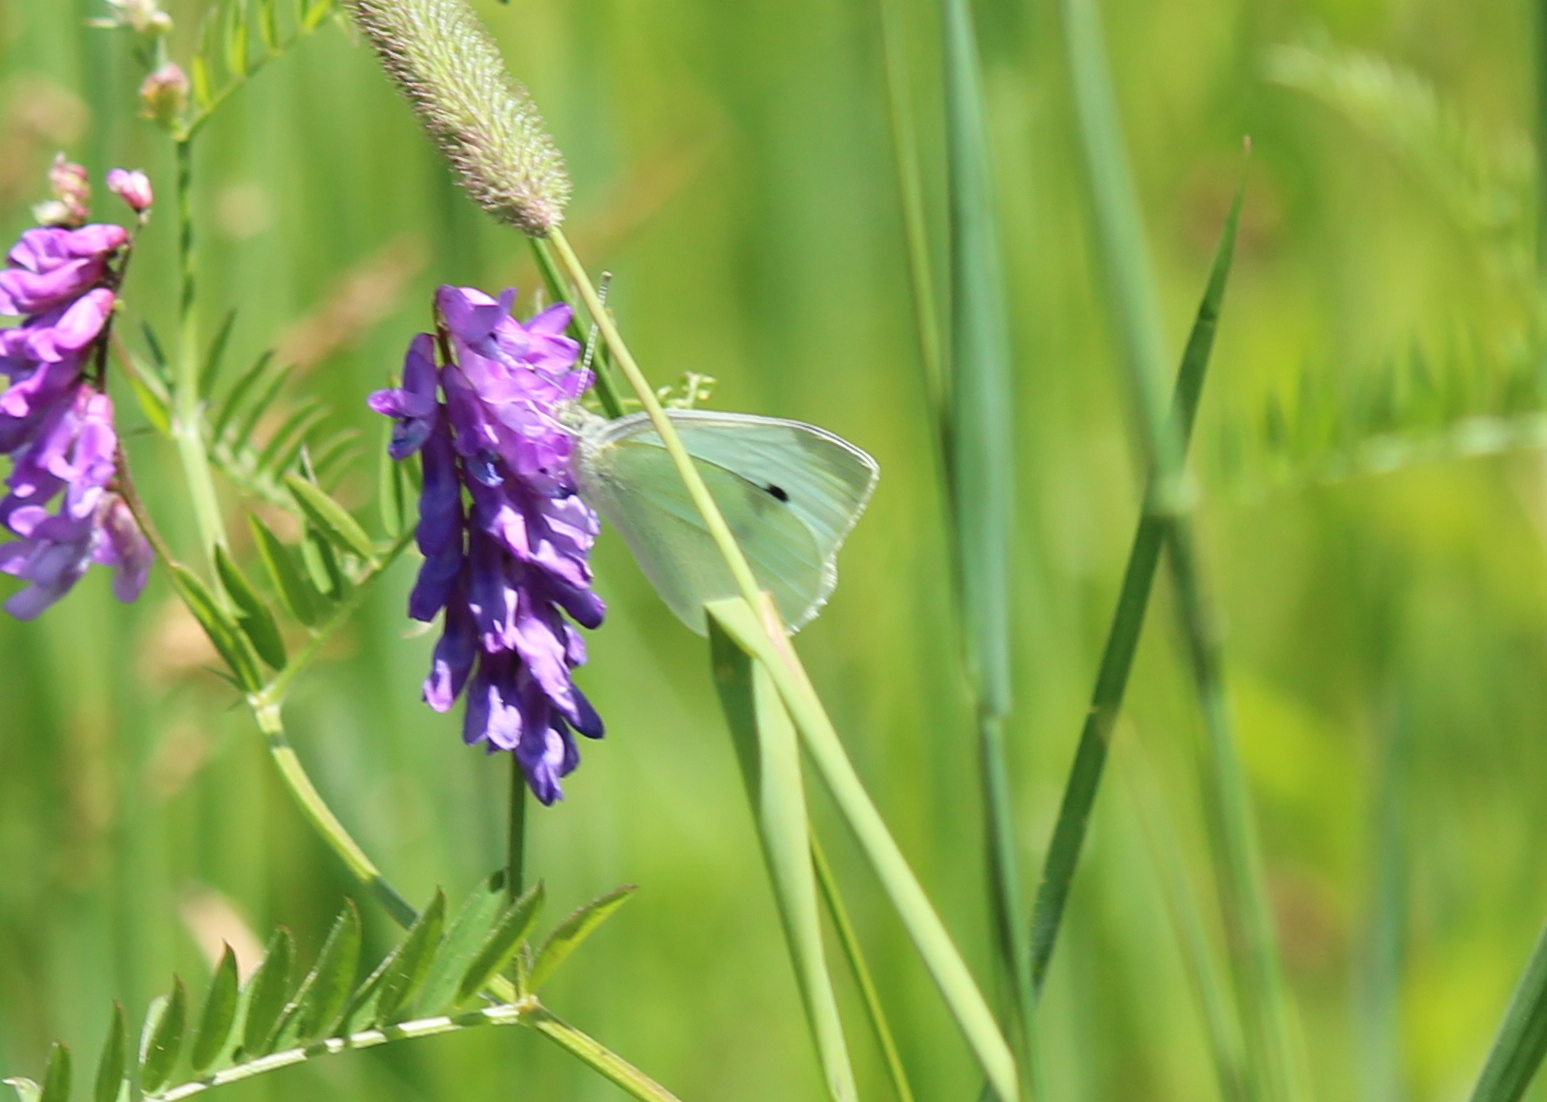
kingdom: Animalia
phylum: Arthropoda
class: Insecta
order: Lepidoptera
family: Pieridae
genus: Pieris
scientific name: Pieris rapae
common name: Small white
